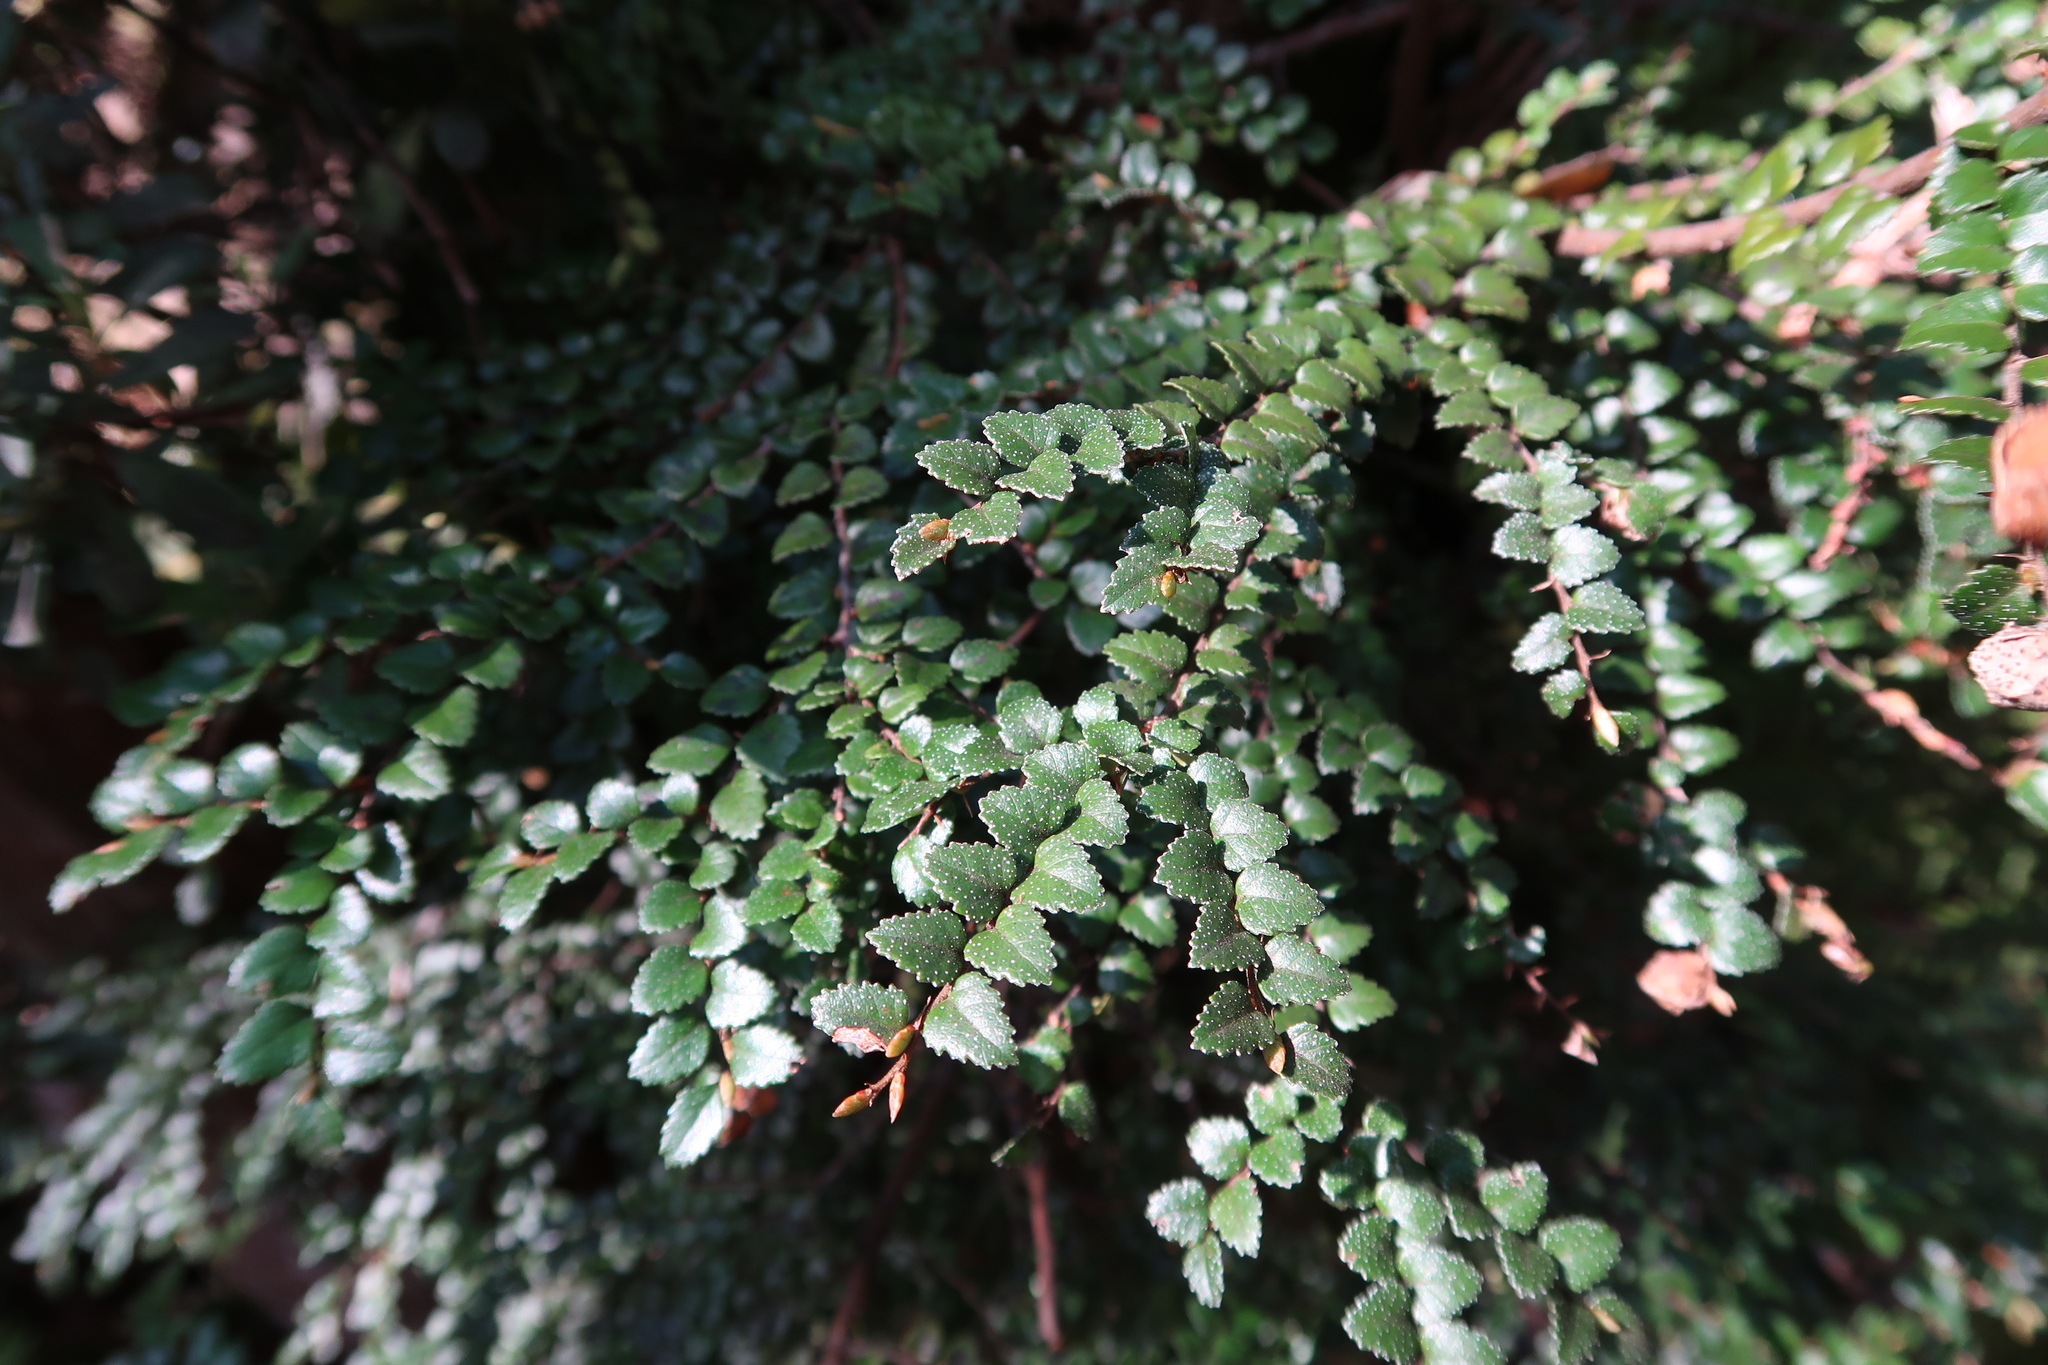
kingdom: Plantae
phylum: Tracheophyta
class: Magnoliopsida
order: Fagales
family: Nothofagaceae
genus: Nothofagus
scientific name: Nothofagus cunninghamii
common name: Myrtle beech
